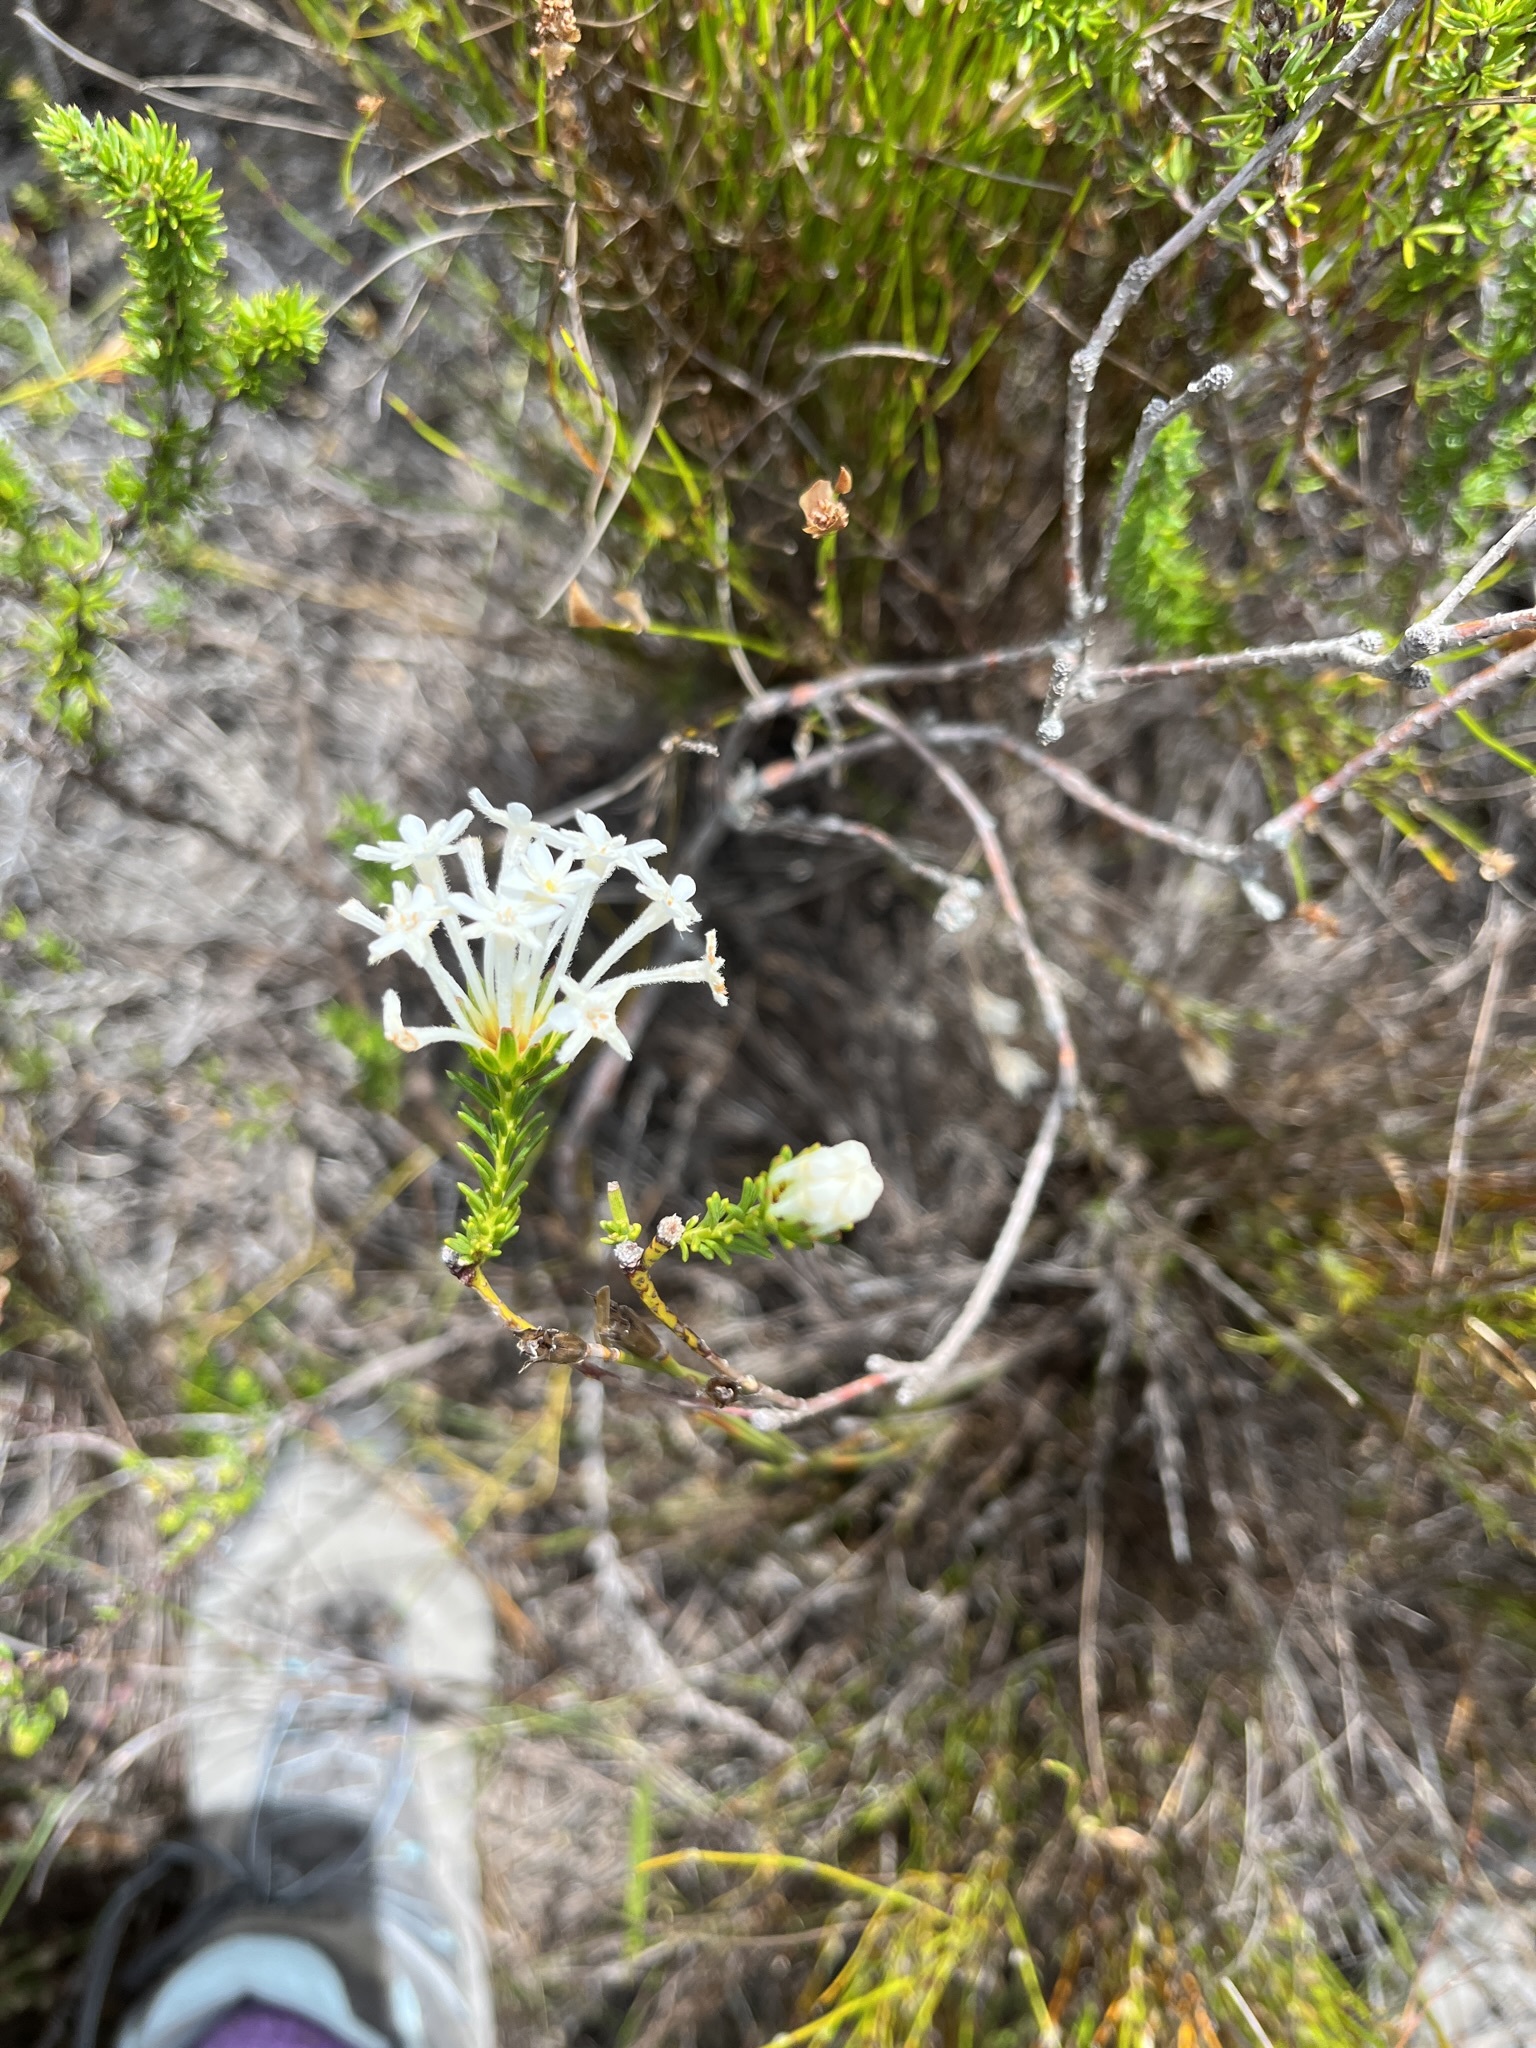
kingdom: Plantae
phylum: Tracheophyta
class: Magnoliopsida
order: Malvales
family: Thymelaeaceae
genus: Gnidia
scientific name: Gnidia pinifolia
